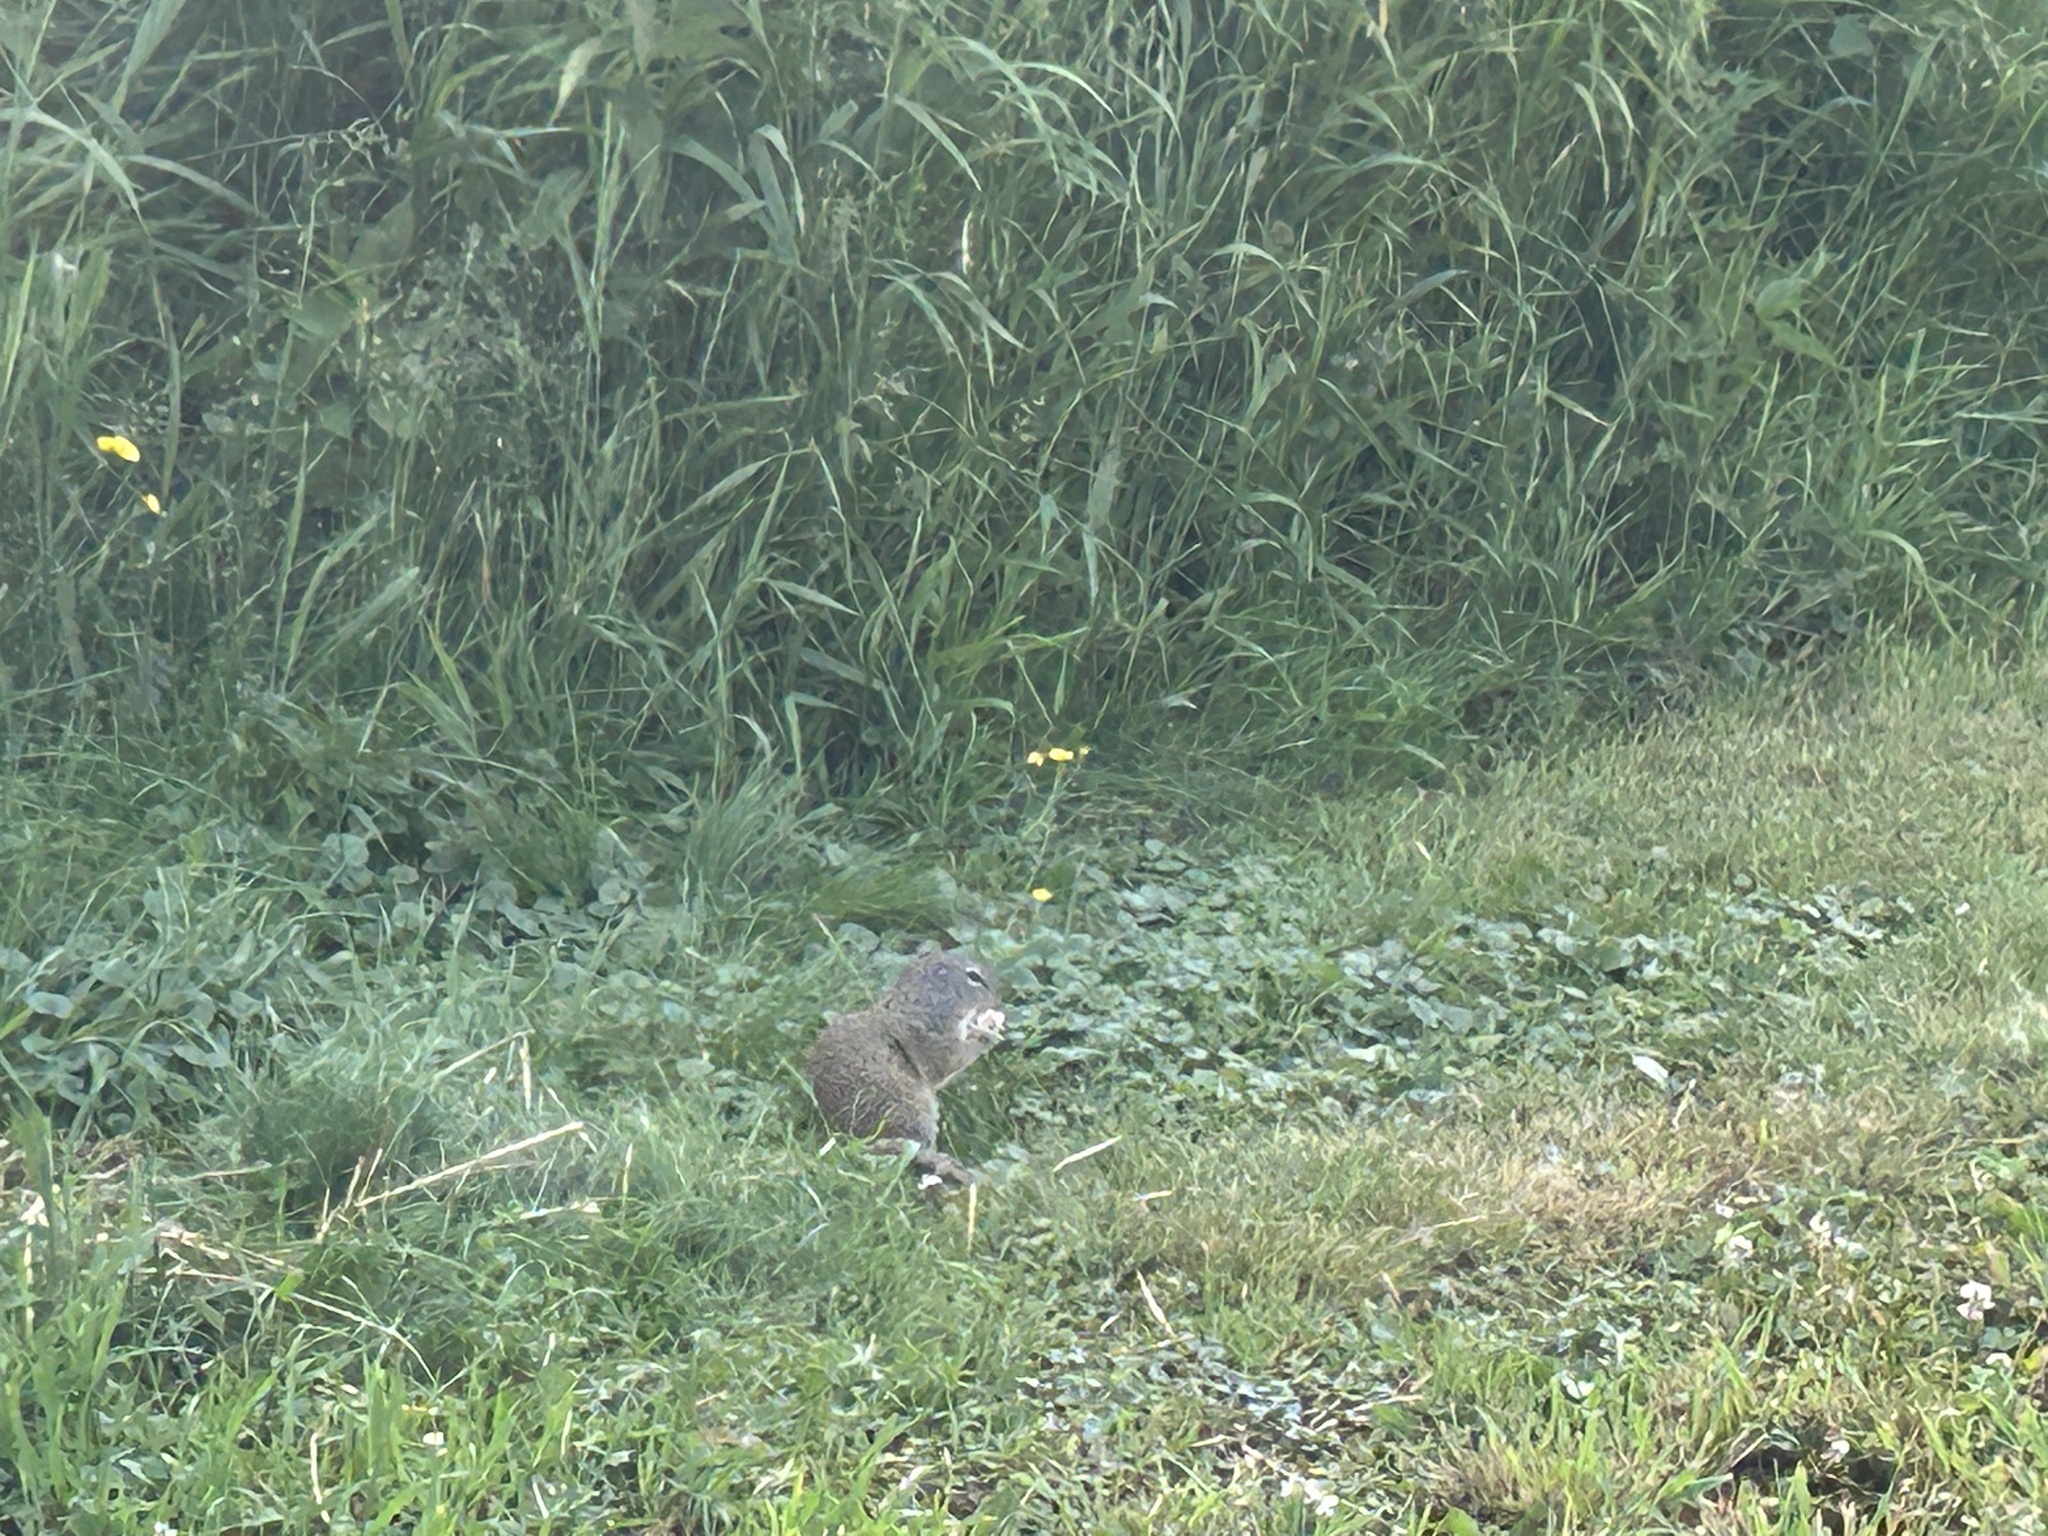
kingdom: Animalia
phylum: Chordata
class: Mammalia
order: Rodentia
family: Sciuridae
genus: Poliocitellus
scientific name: Poliocitellus franklinii
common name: Franklin's ground squirrel
